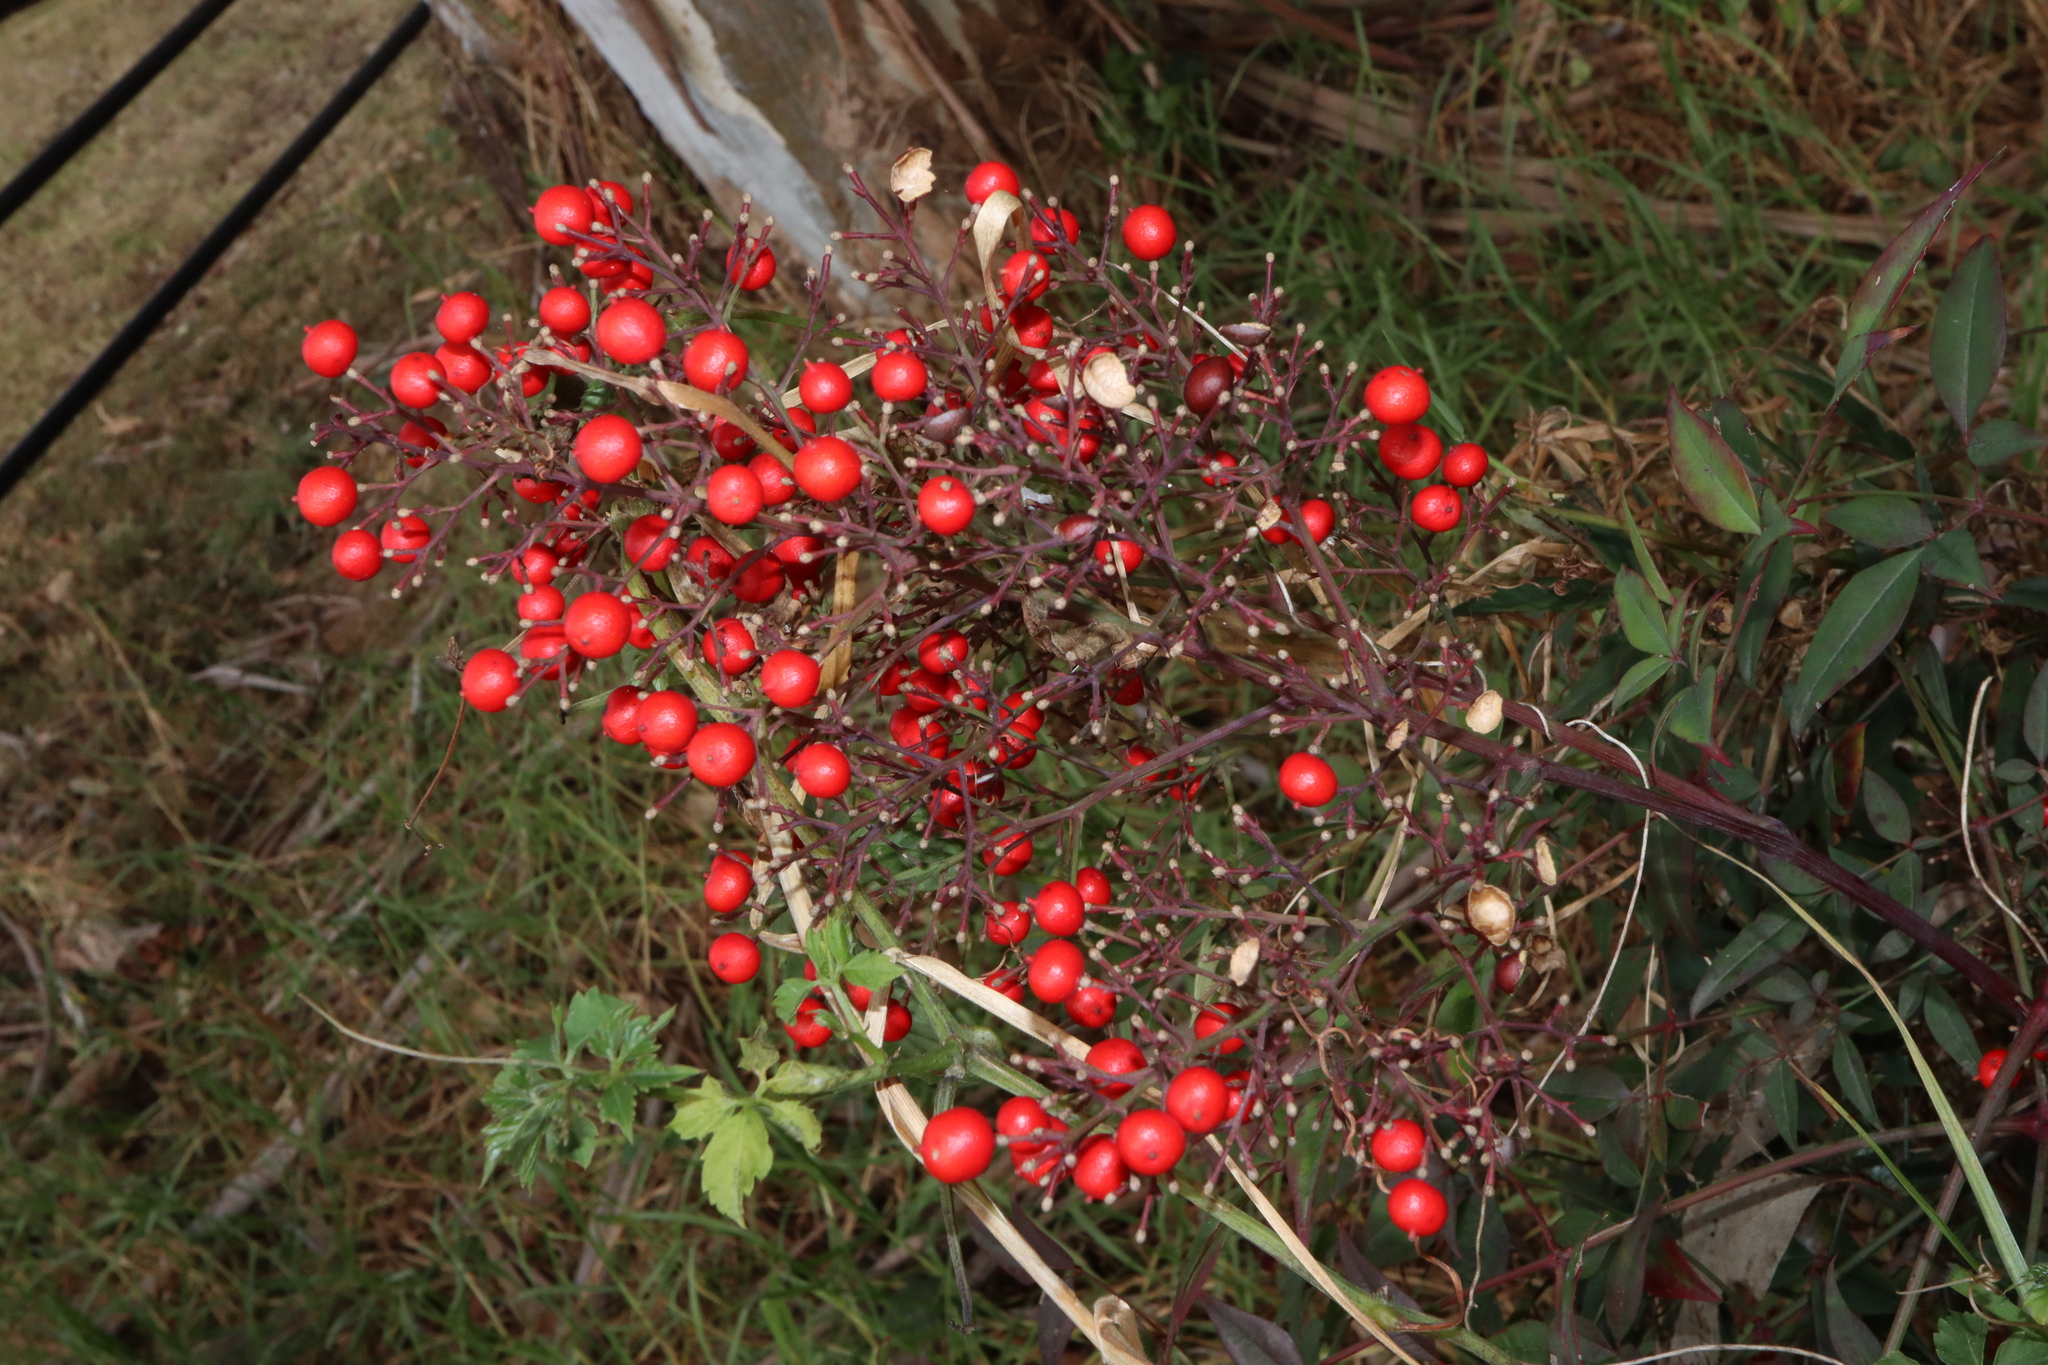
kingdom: Plantae
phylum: Tracheophyta
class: Magnoliopsida
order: Ranunculales
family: Berberidaceae
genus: Nandina
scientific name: Nandina domestica
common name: Sacred bamboo
